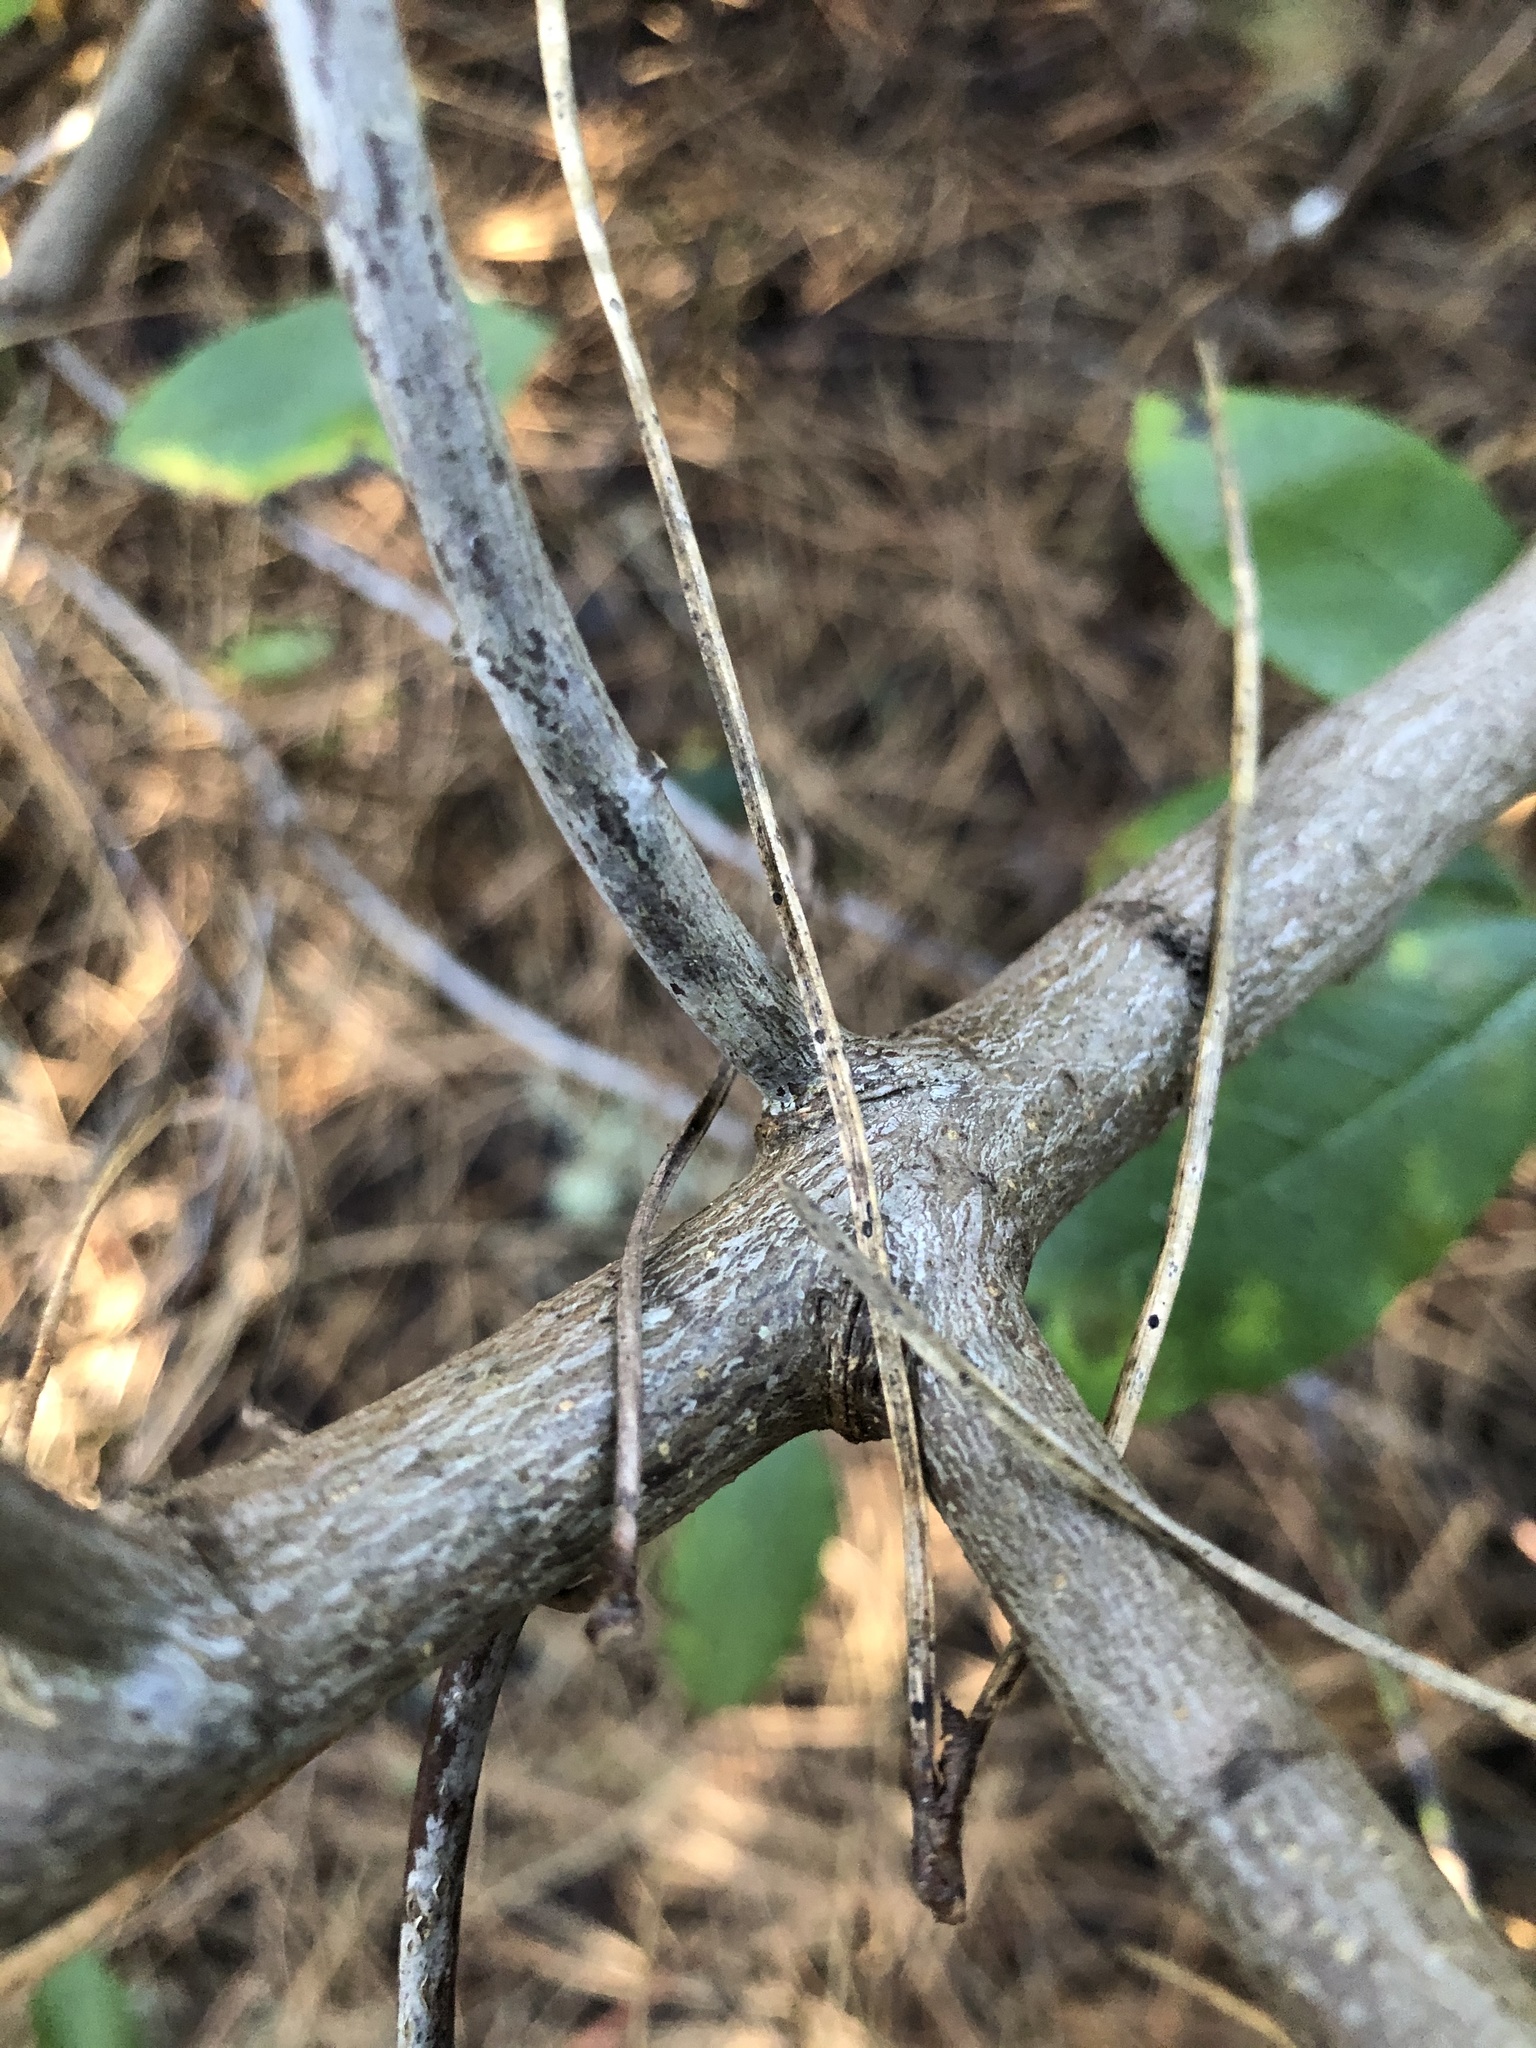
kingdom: Plantae
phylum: Tracheophyta
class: Magnoliopsida
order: Rosales
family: Rhamnaceae
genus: Frangula
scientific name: Frangula californica
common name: California buckthorn
